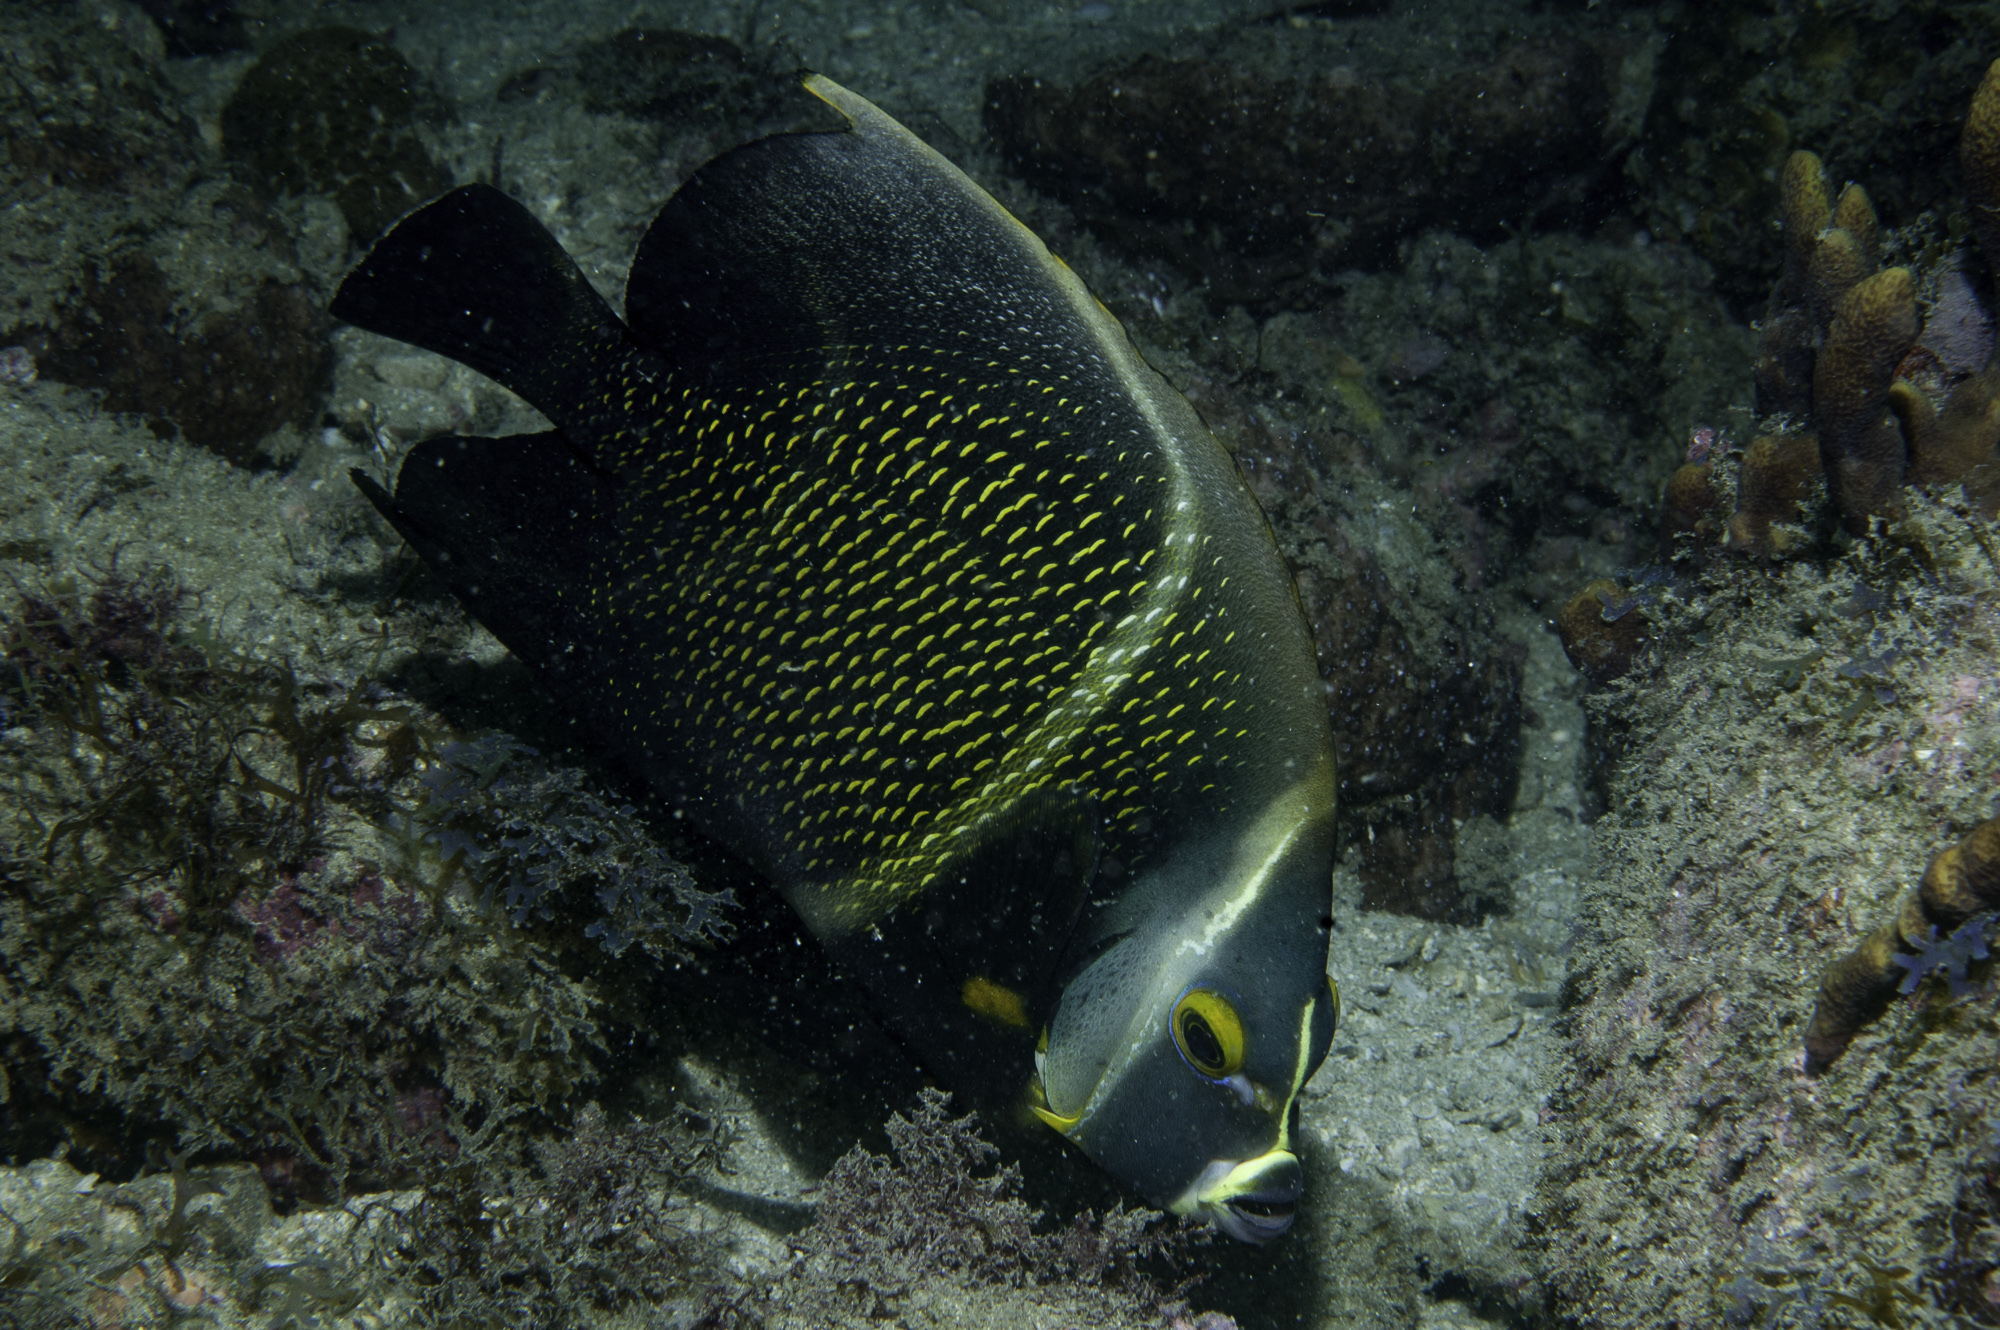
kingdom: Animalia
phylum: Chordata
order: Perciformes
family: Pomacanthidae
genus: Pomacanthus
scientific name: Pomacanthus paru
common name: French angelfish
